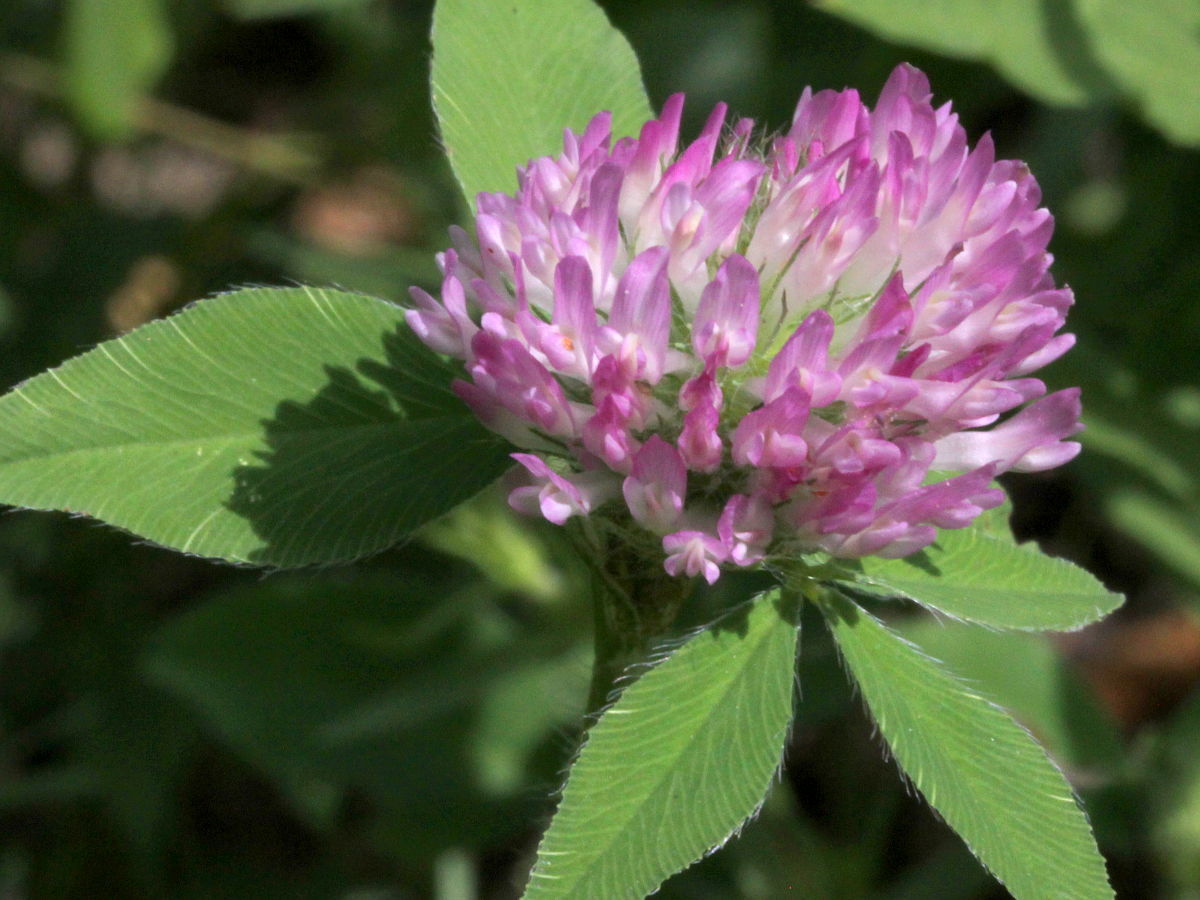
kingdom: Plantae
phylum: Tracheophyta
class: Magnoliopsida
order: Fabales
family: Fabaceae
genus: Trifolium
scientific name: Trifolium pratense
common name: Red clover
